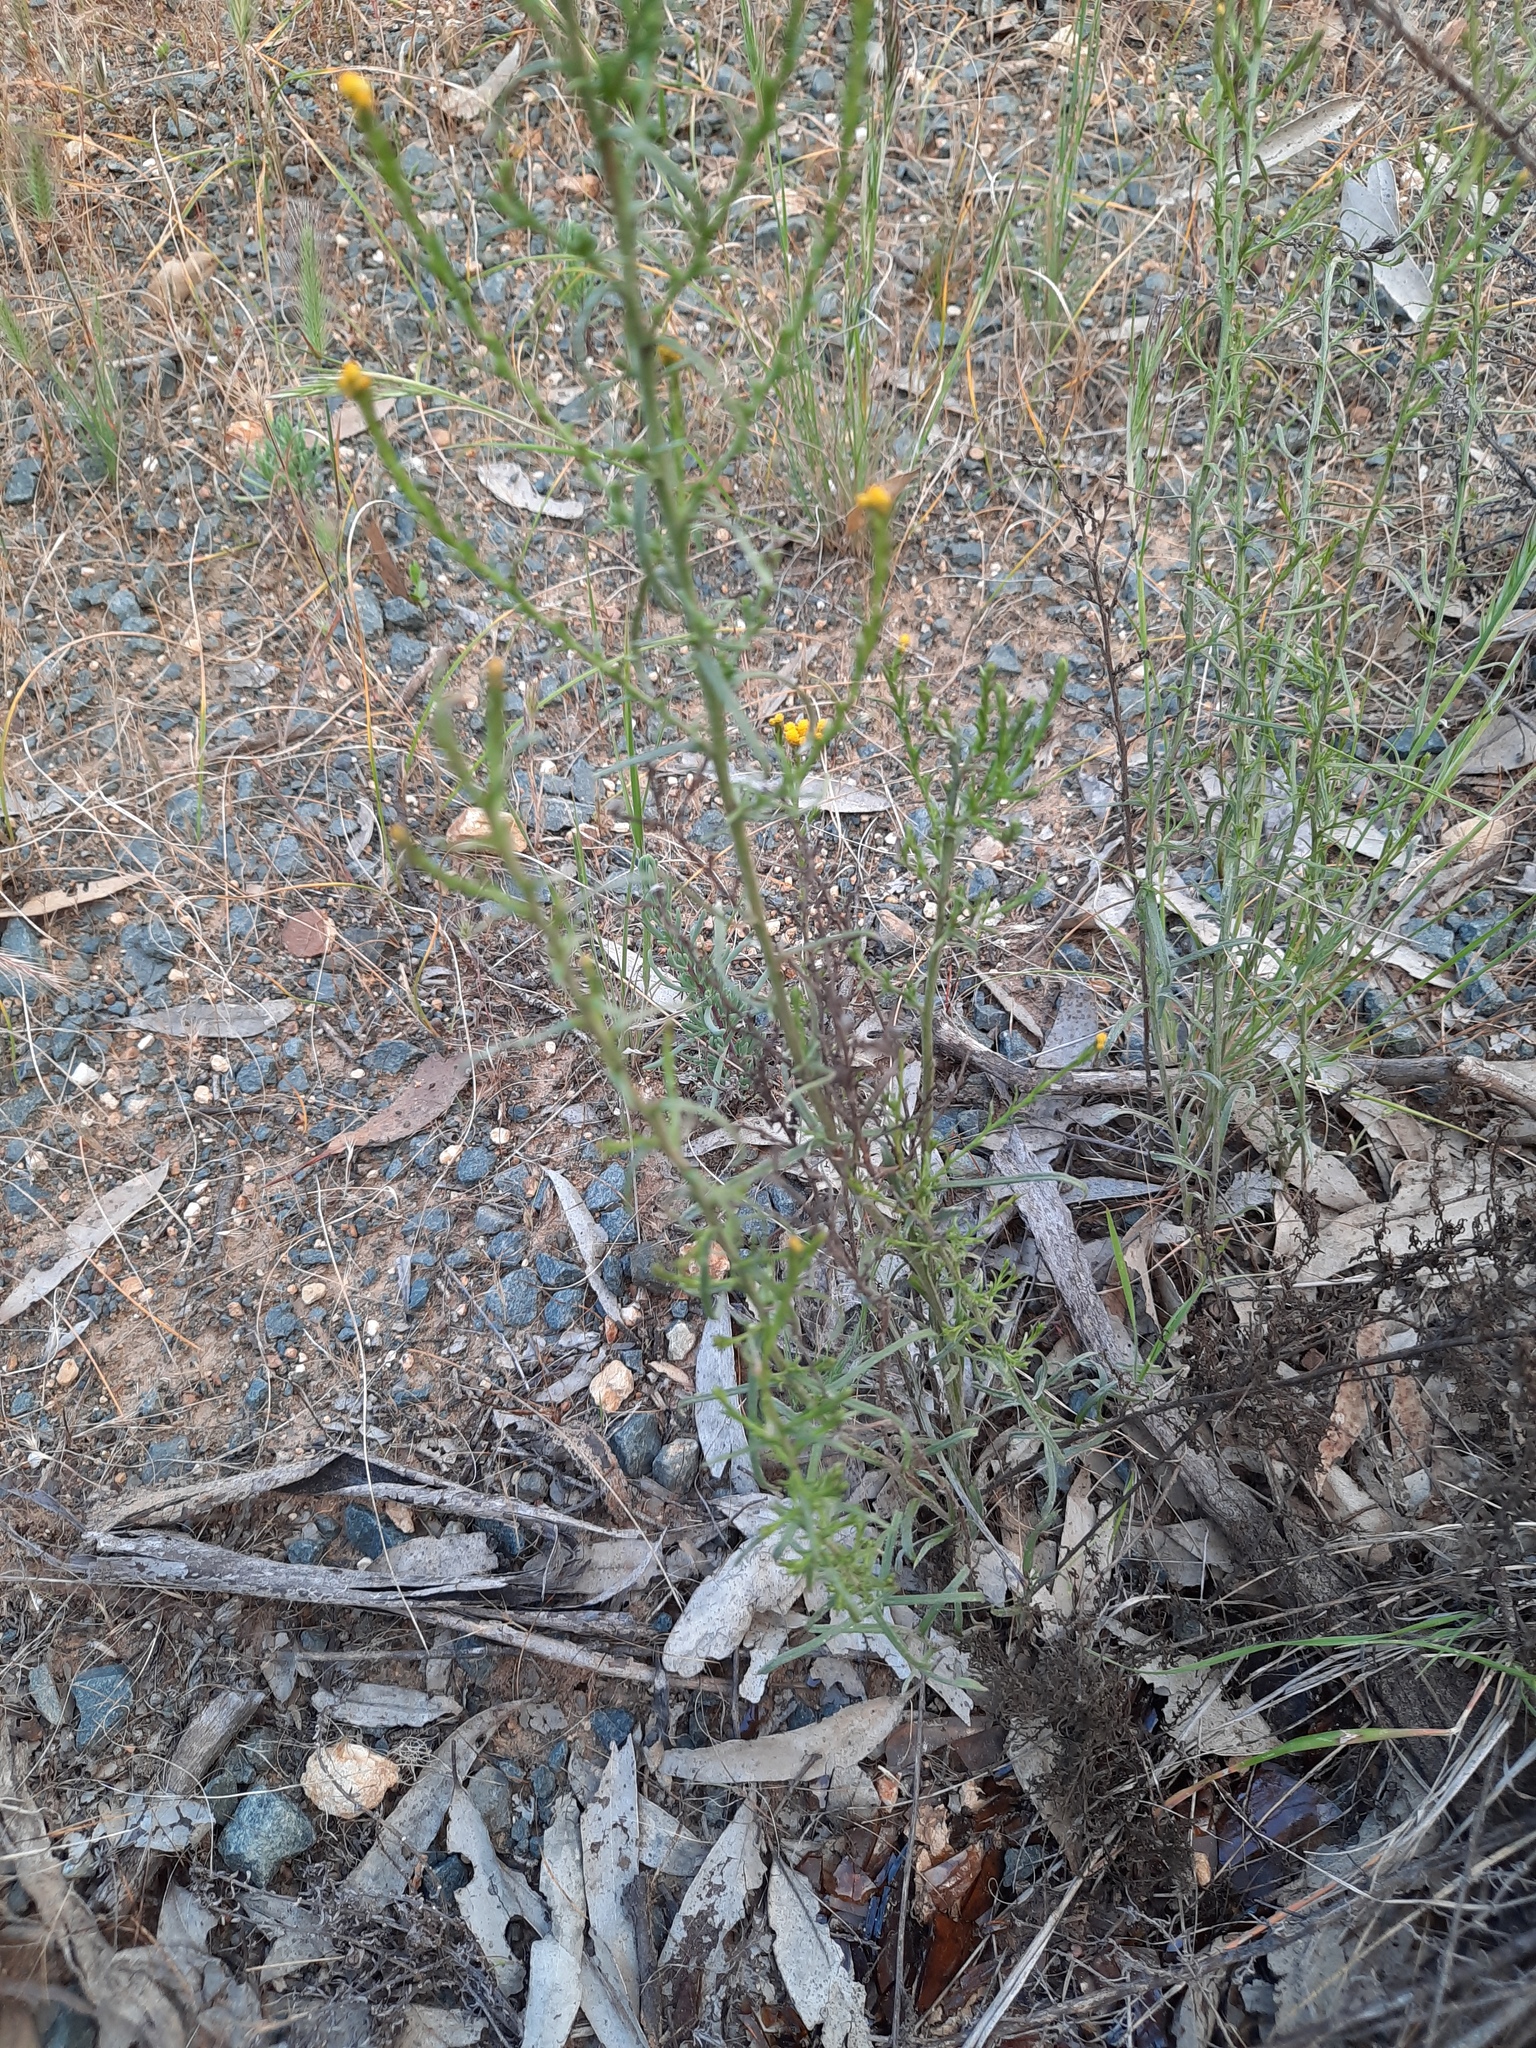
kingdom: Plantae
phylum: Tracheophyta
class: Magnoliopsida
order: Asterales
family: Asteraceae
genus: Chrysocephalum
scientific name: Chrysocephalum semipapposum
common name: Clustered everlasting
